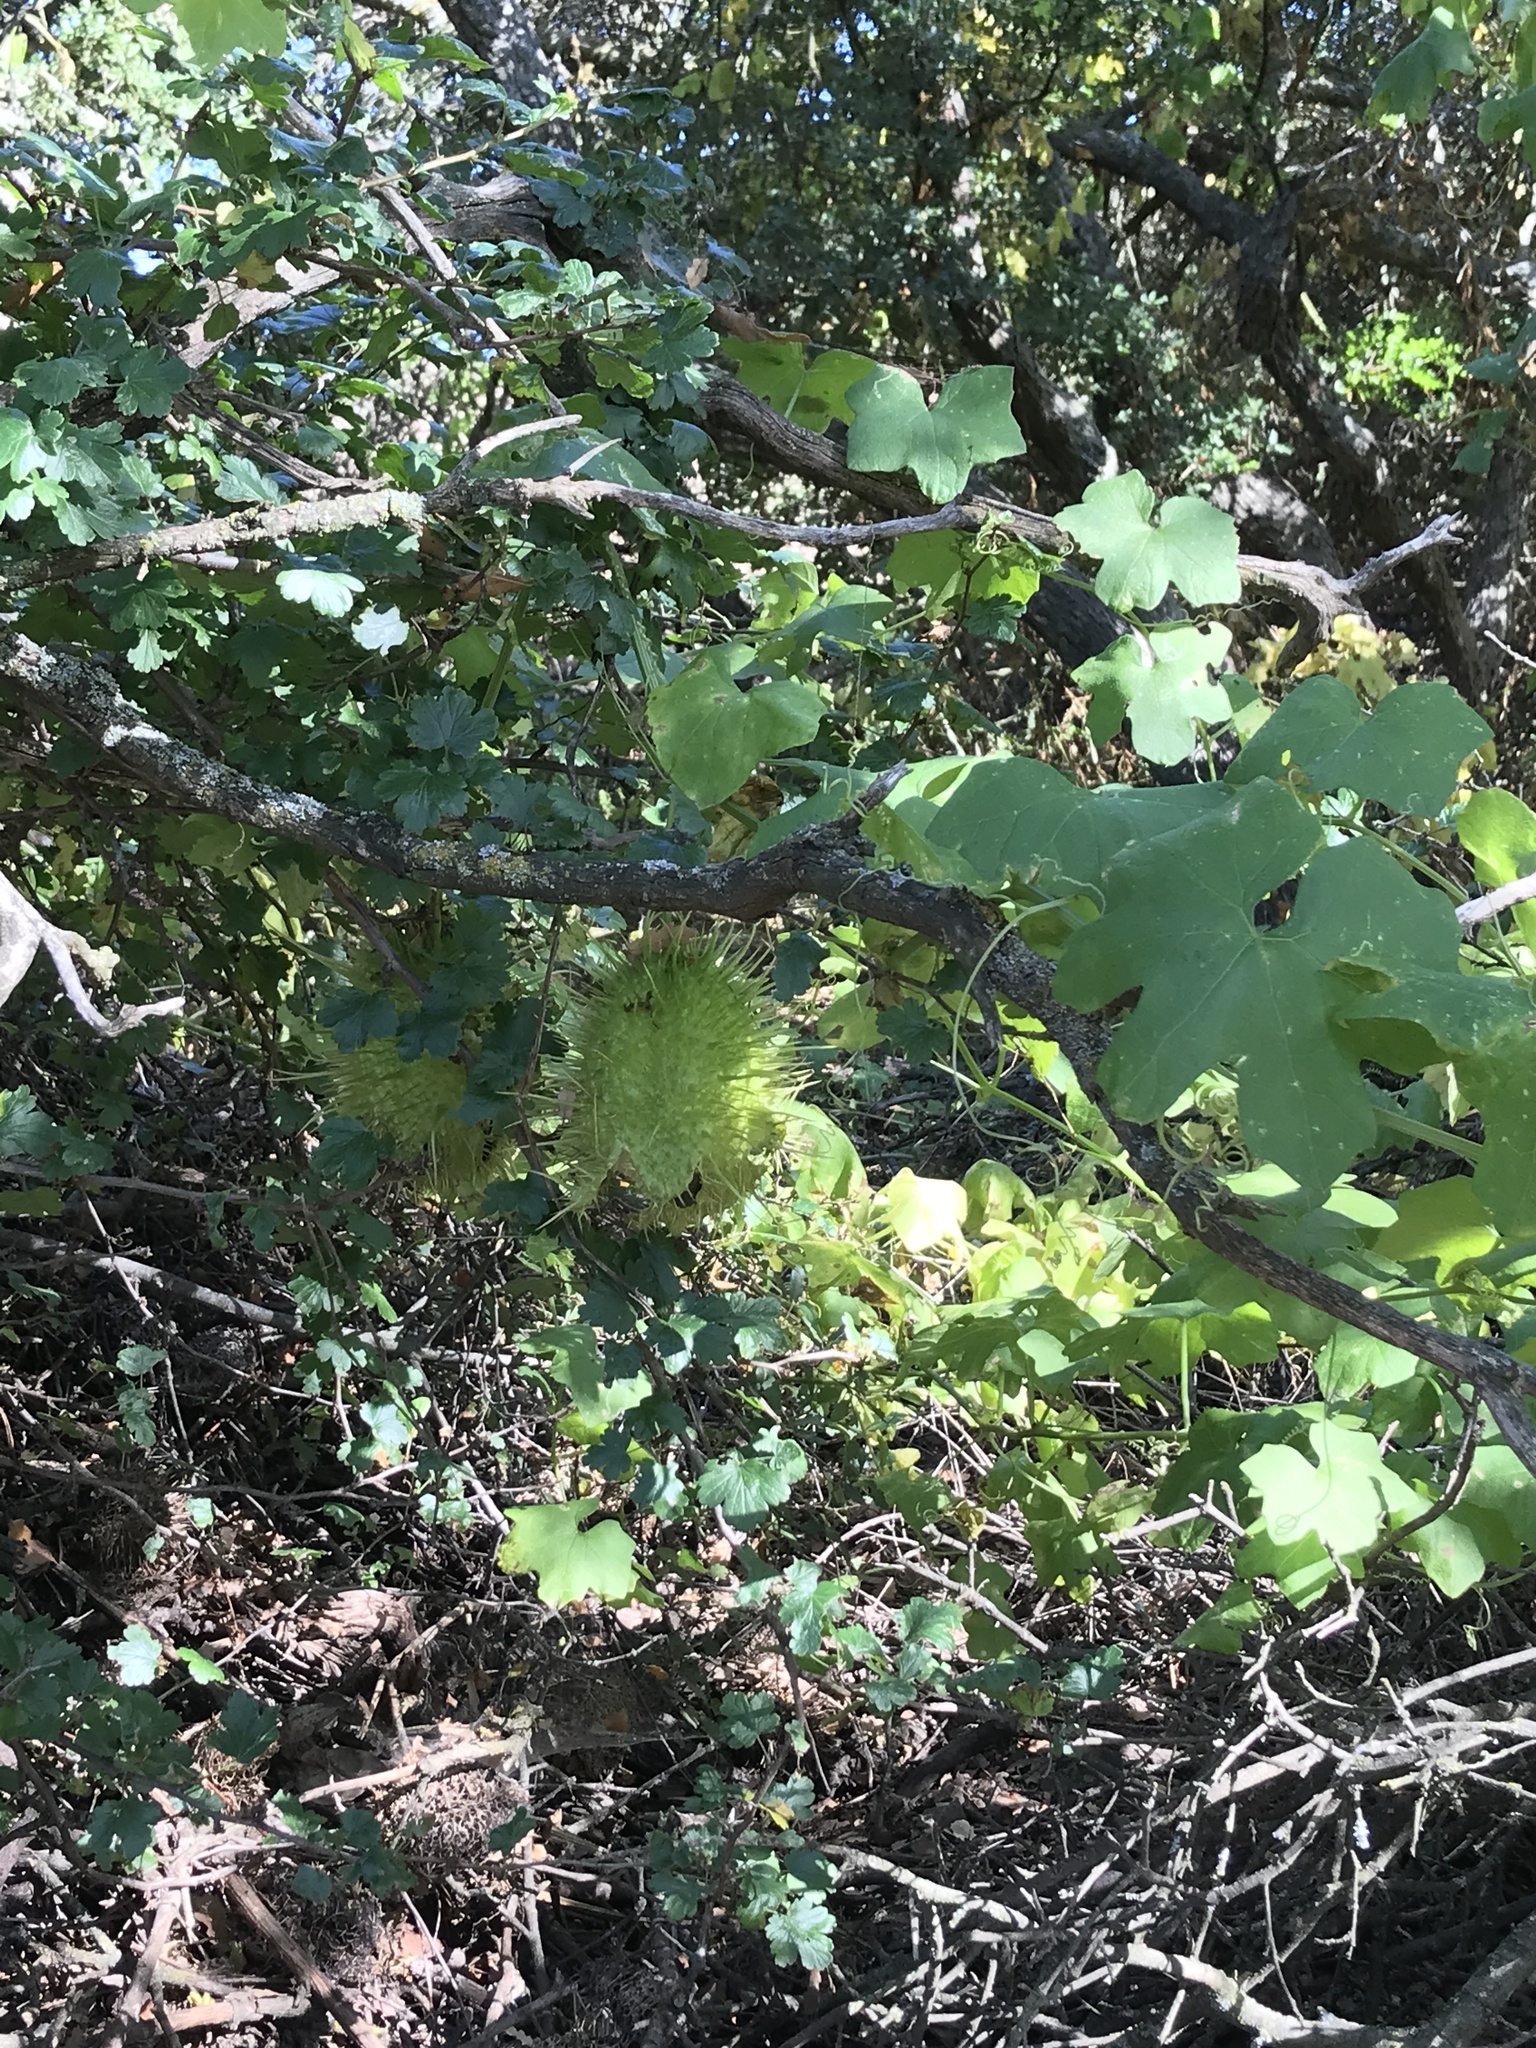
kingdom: Plantae
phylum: Tracheophyta
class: Magnoliopsida
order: Cucurbitales
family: Cucurbitaceae
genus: Marah
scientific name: Marah macrocarpa
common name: Cucamonga manroot
